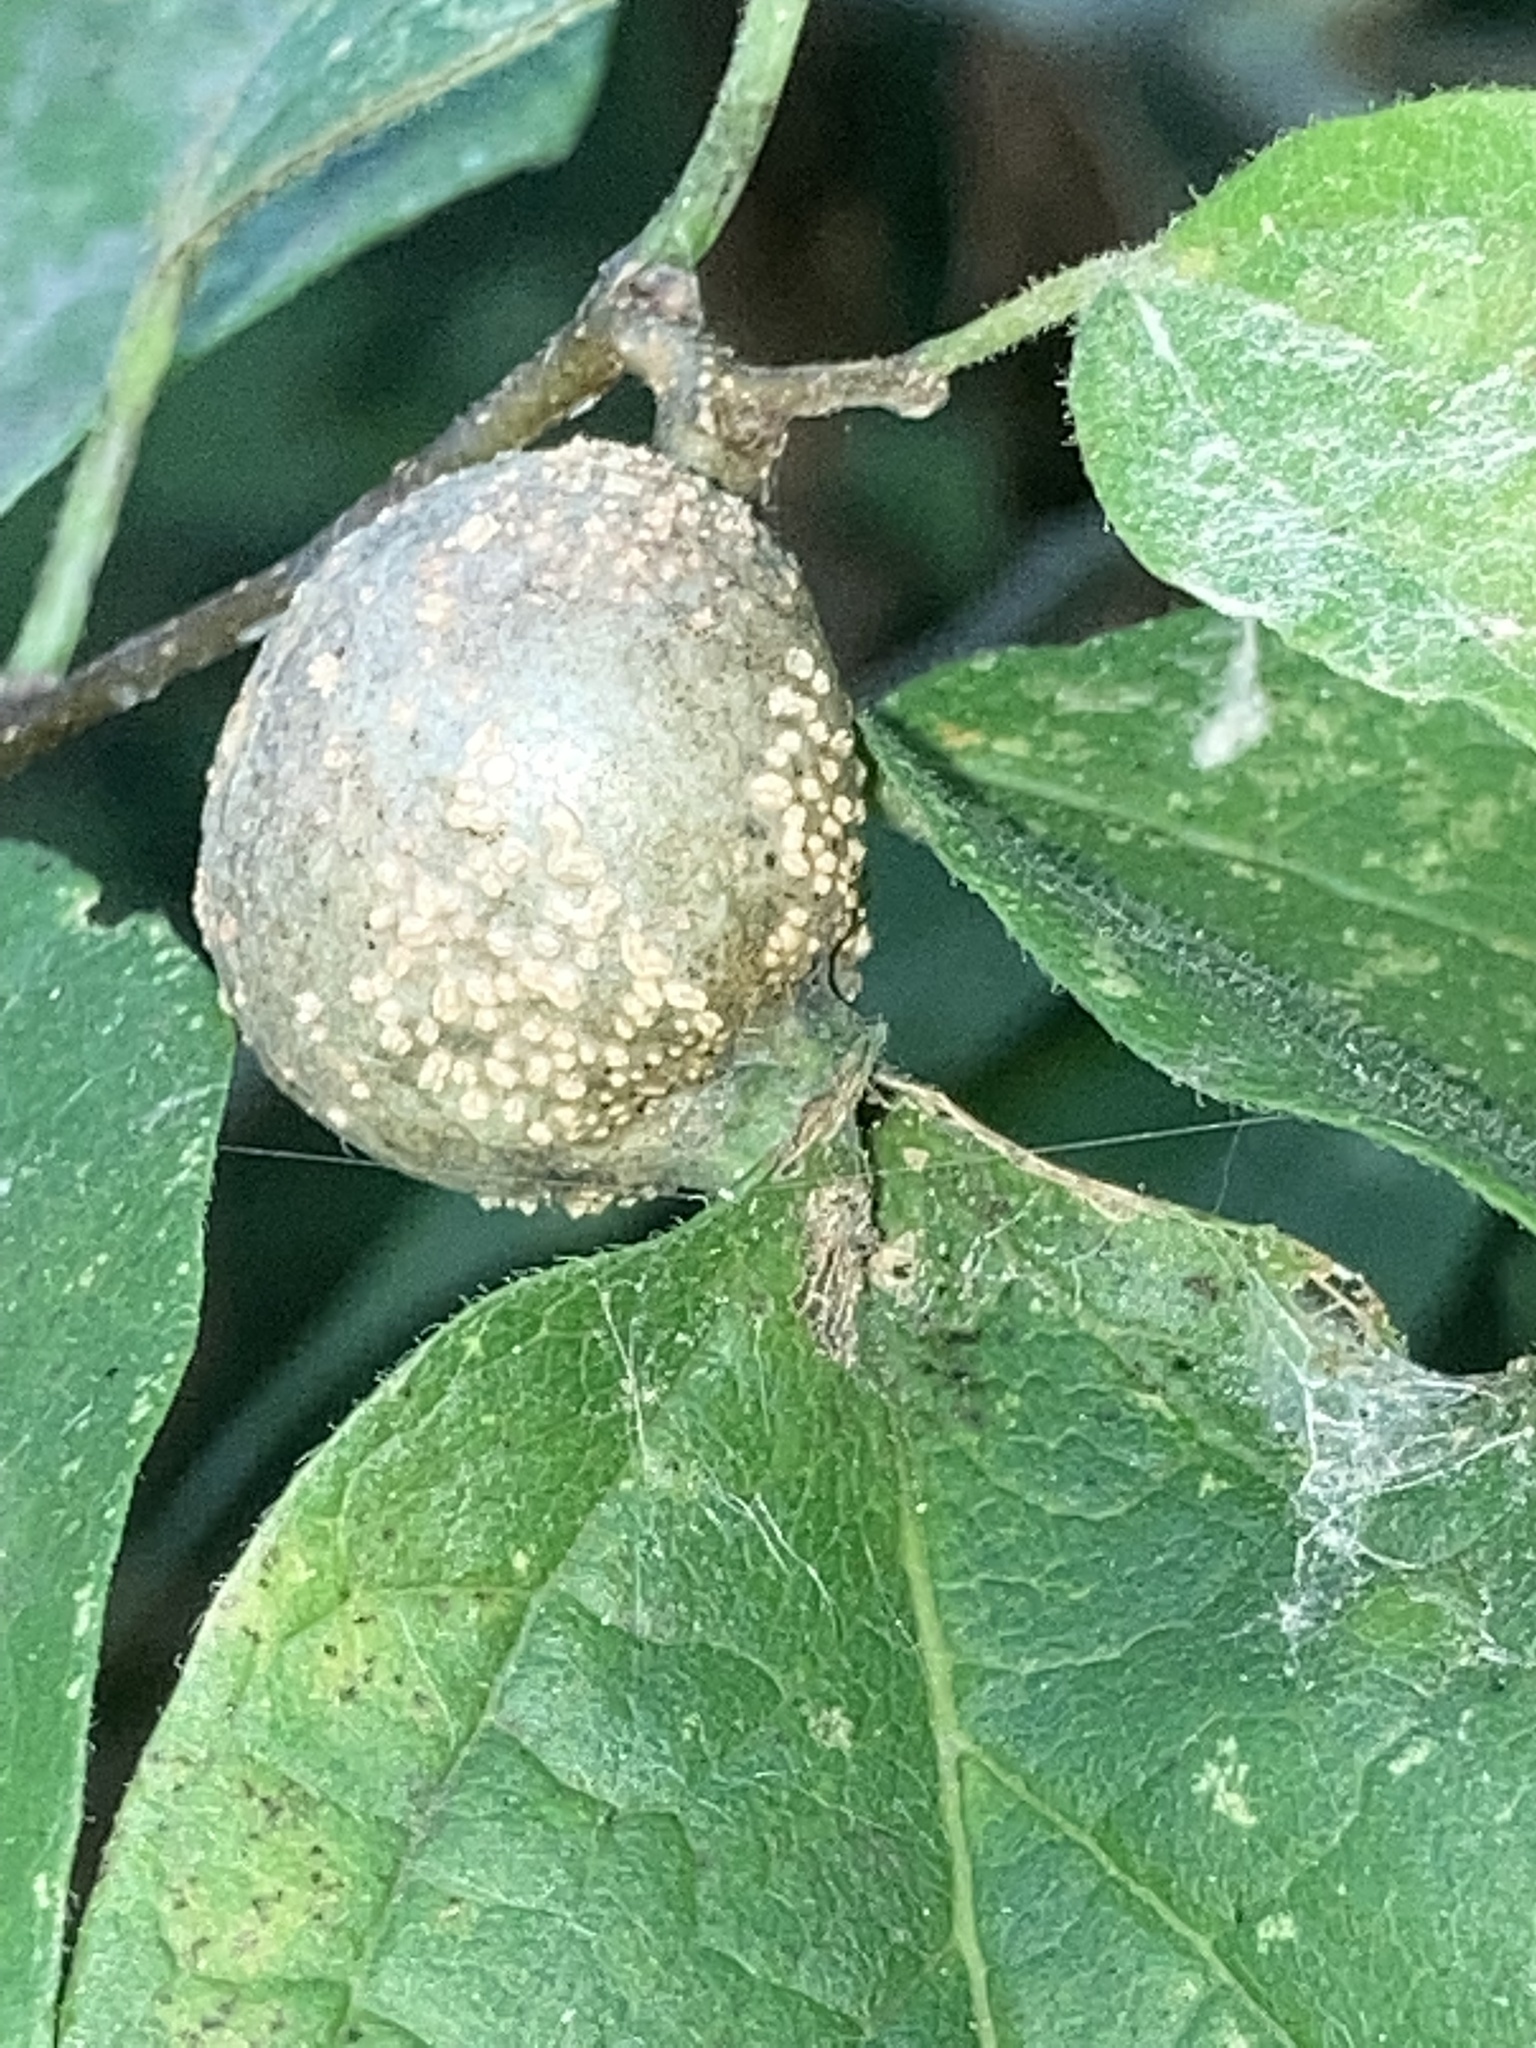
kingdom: Animalia
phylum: Arthropoda
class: Insecta
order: Hemiptera
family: Aphalaridae
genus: Pachypsylla
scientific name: Pachypsylla venusta
